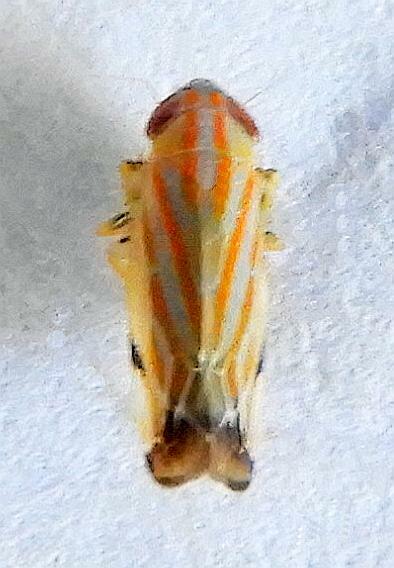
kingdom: Animalia
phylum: Arthropoda
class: Insecta
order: Hemiptera
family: Cicadellidae
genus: Deltanus
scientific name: Deltanus texanus
